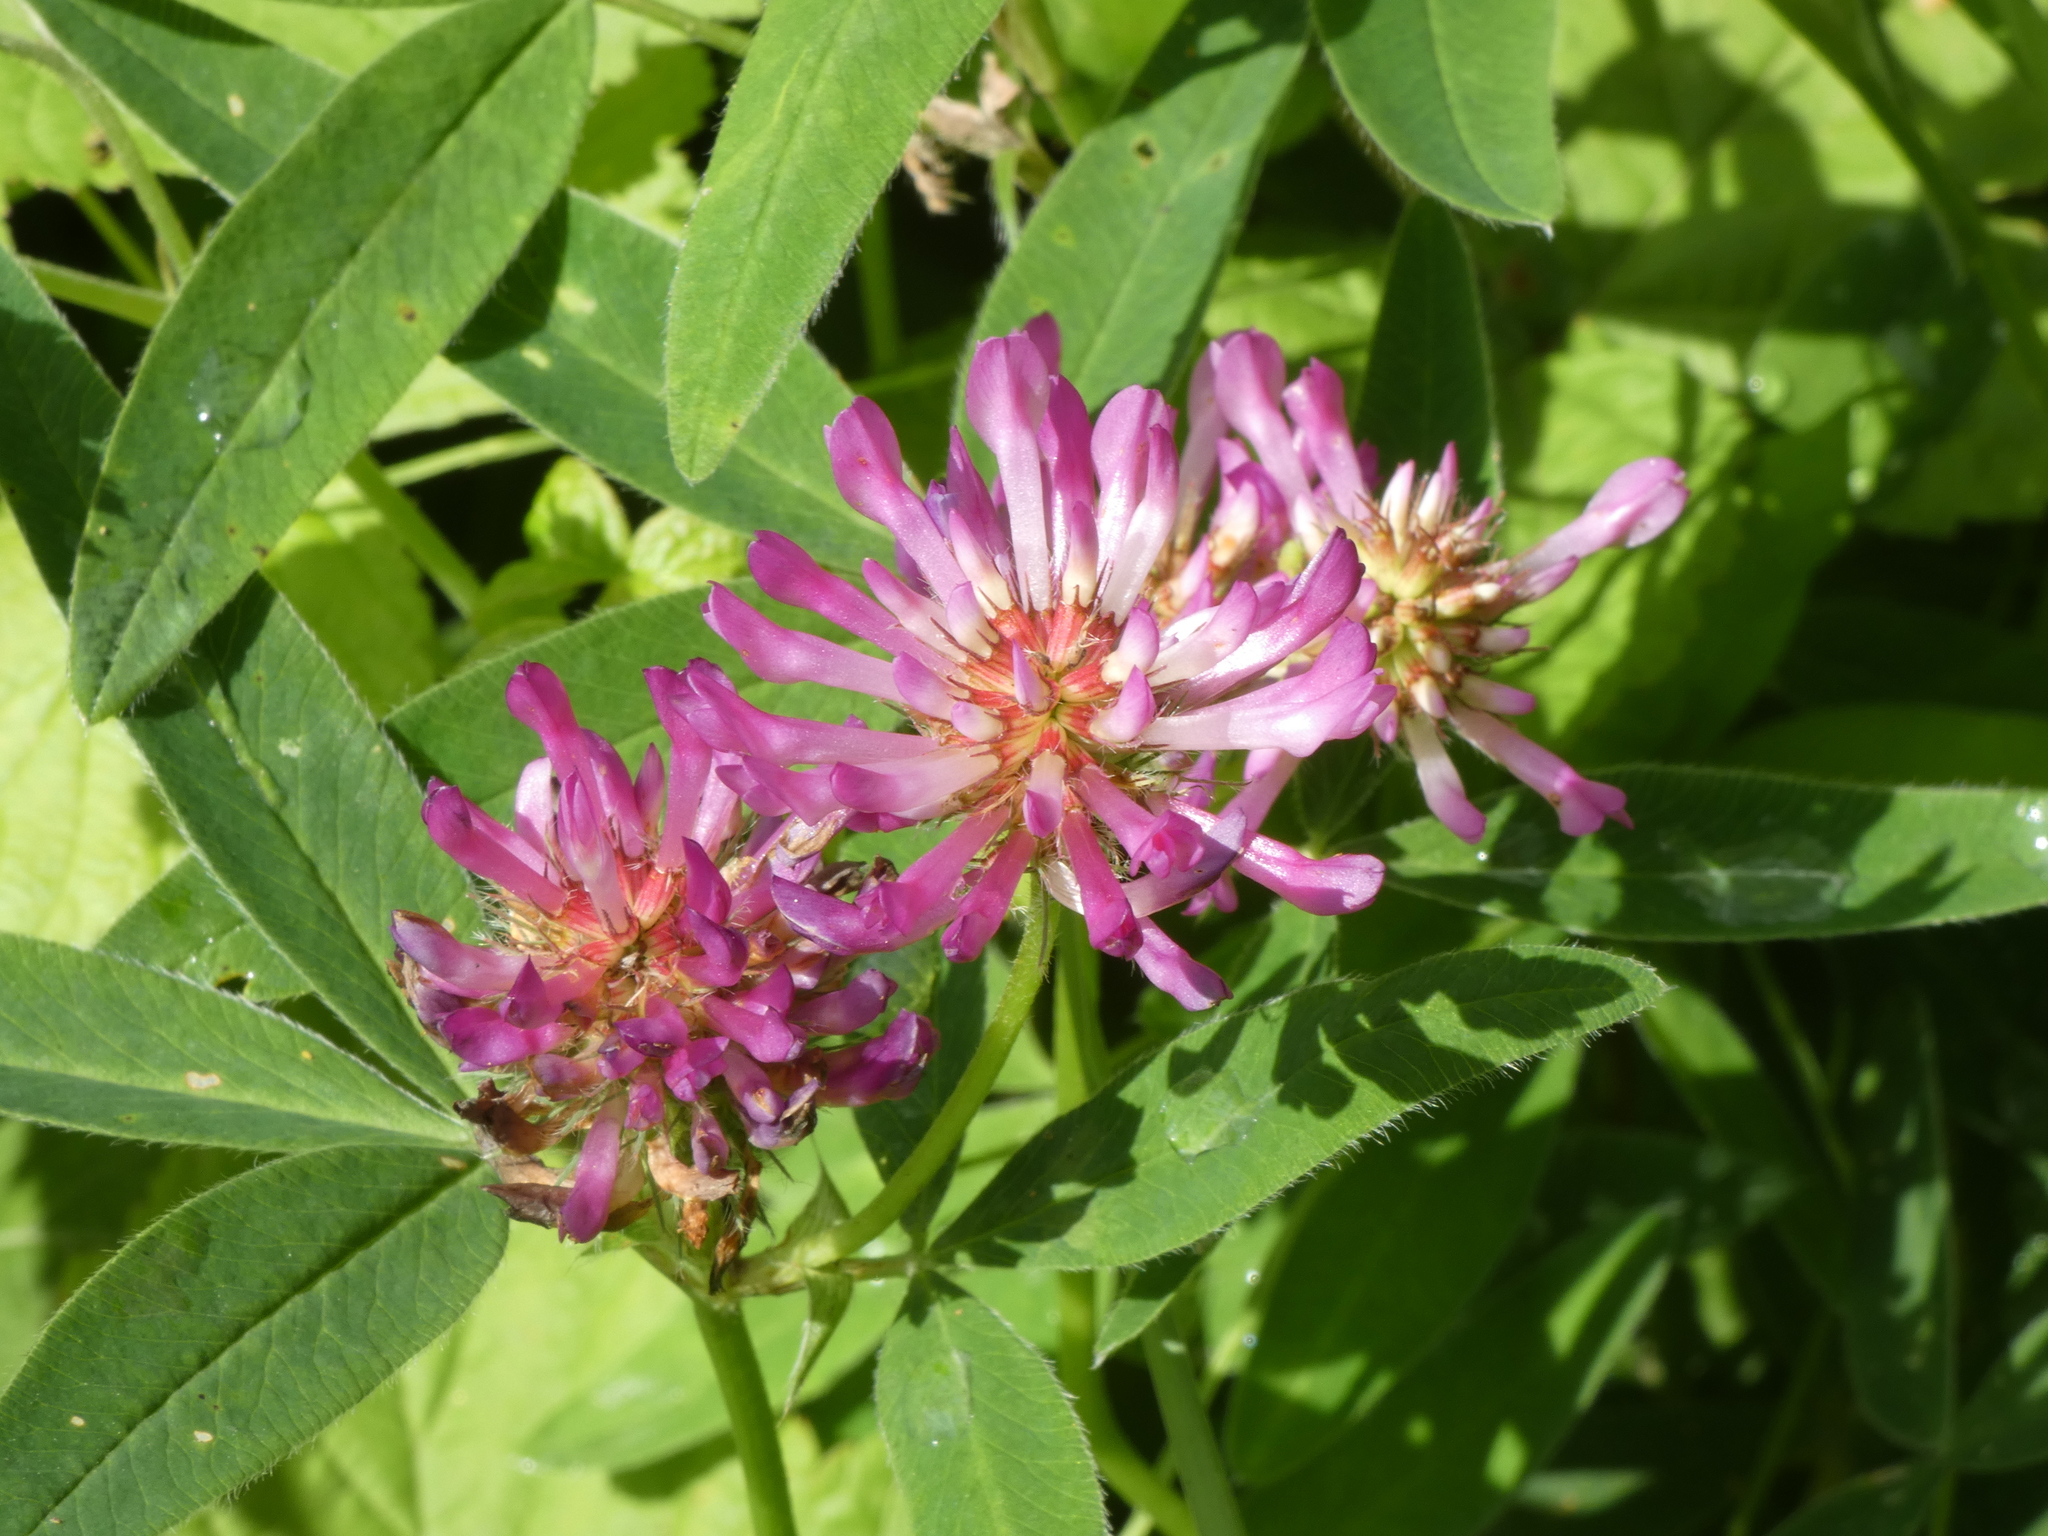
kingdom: Plantae
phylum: Tracheophyta
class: Magnoliopsida
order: Fabales
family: Fabaceae
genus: Trifolium
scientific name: Trifolium medium
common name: Zigzag clover
